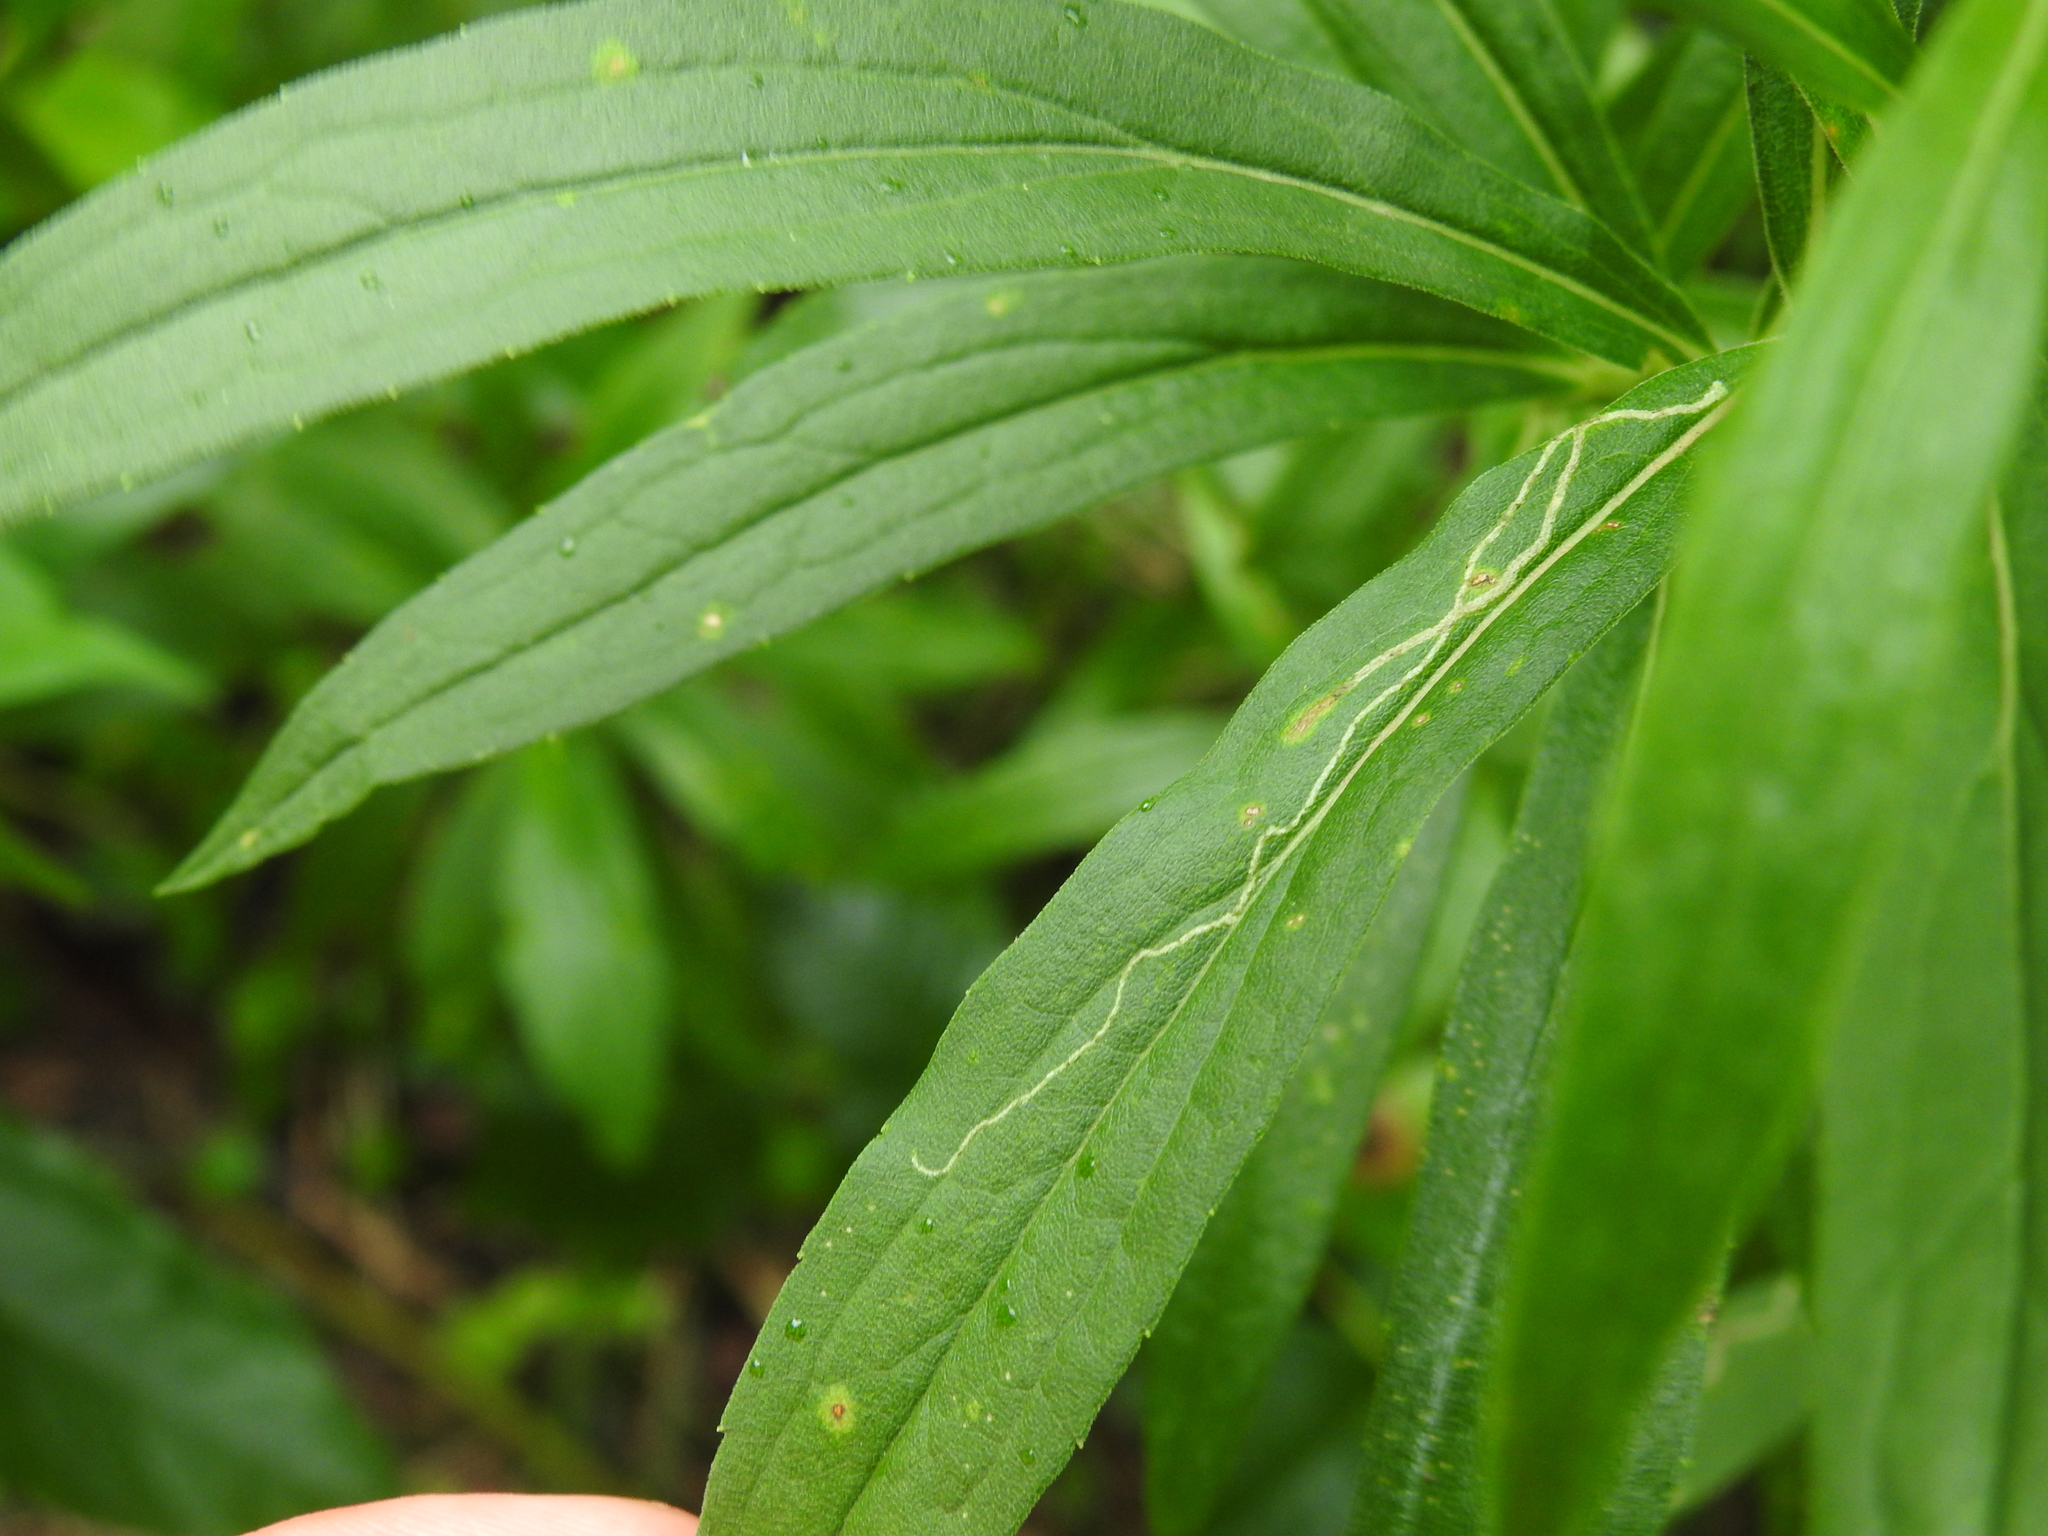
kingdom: Animalia
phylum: Arthropoda
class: Insecta
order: Diptera
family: Agromyzidae
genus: Ophiomyia
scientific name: Ophiomyia maura
